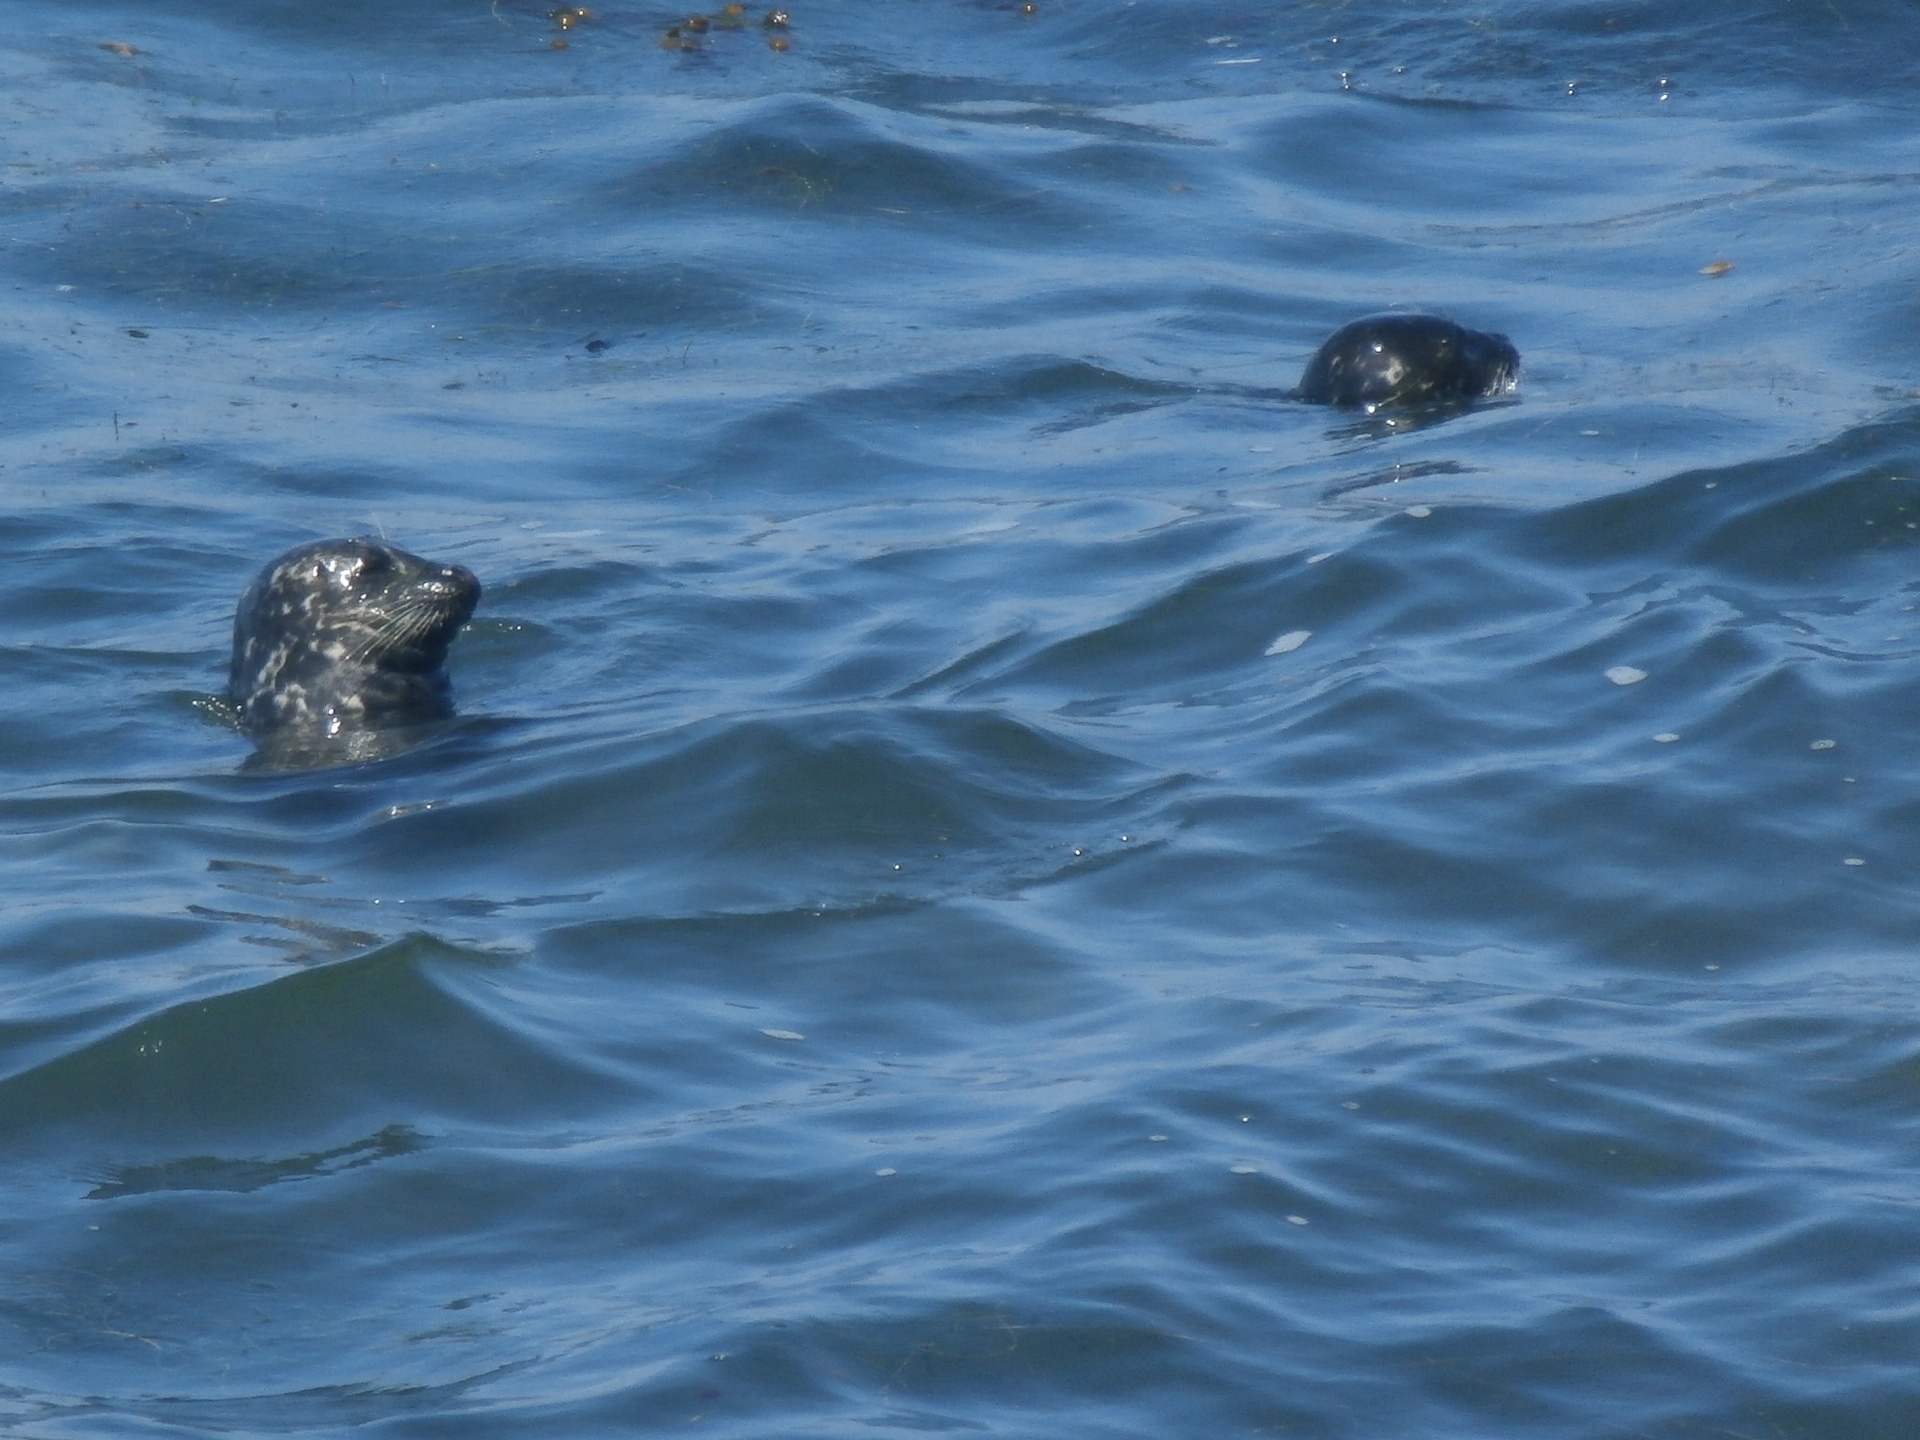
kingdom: Animalia
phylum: Chordata
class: Mammalia
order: Carnivora
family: Phocidae
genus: Phoca
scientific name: Phoca vitulina
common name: Harbor seal
